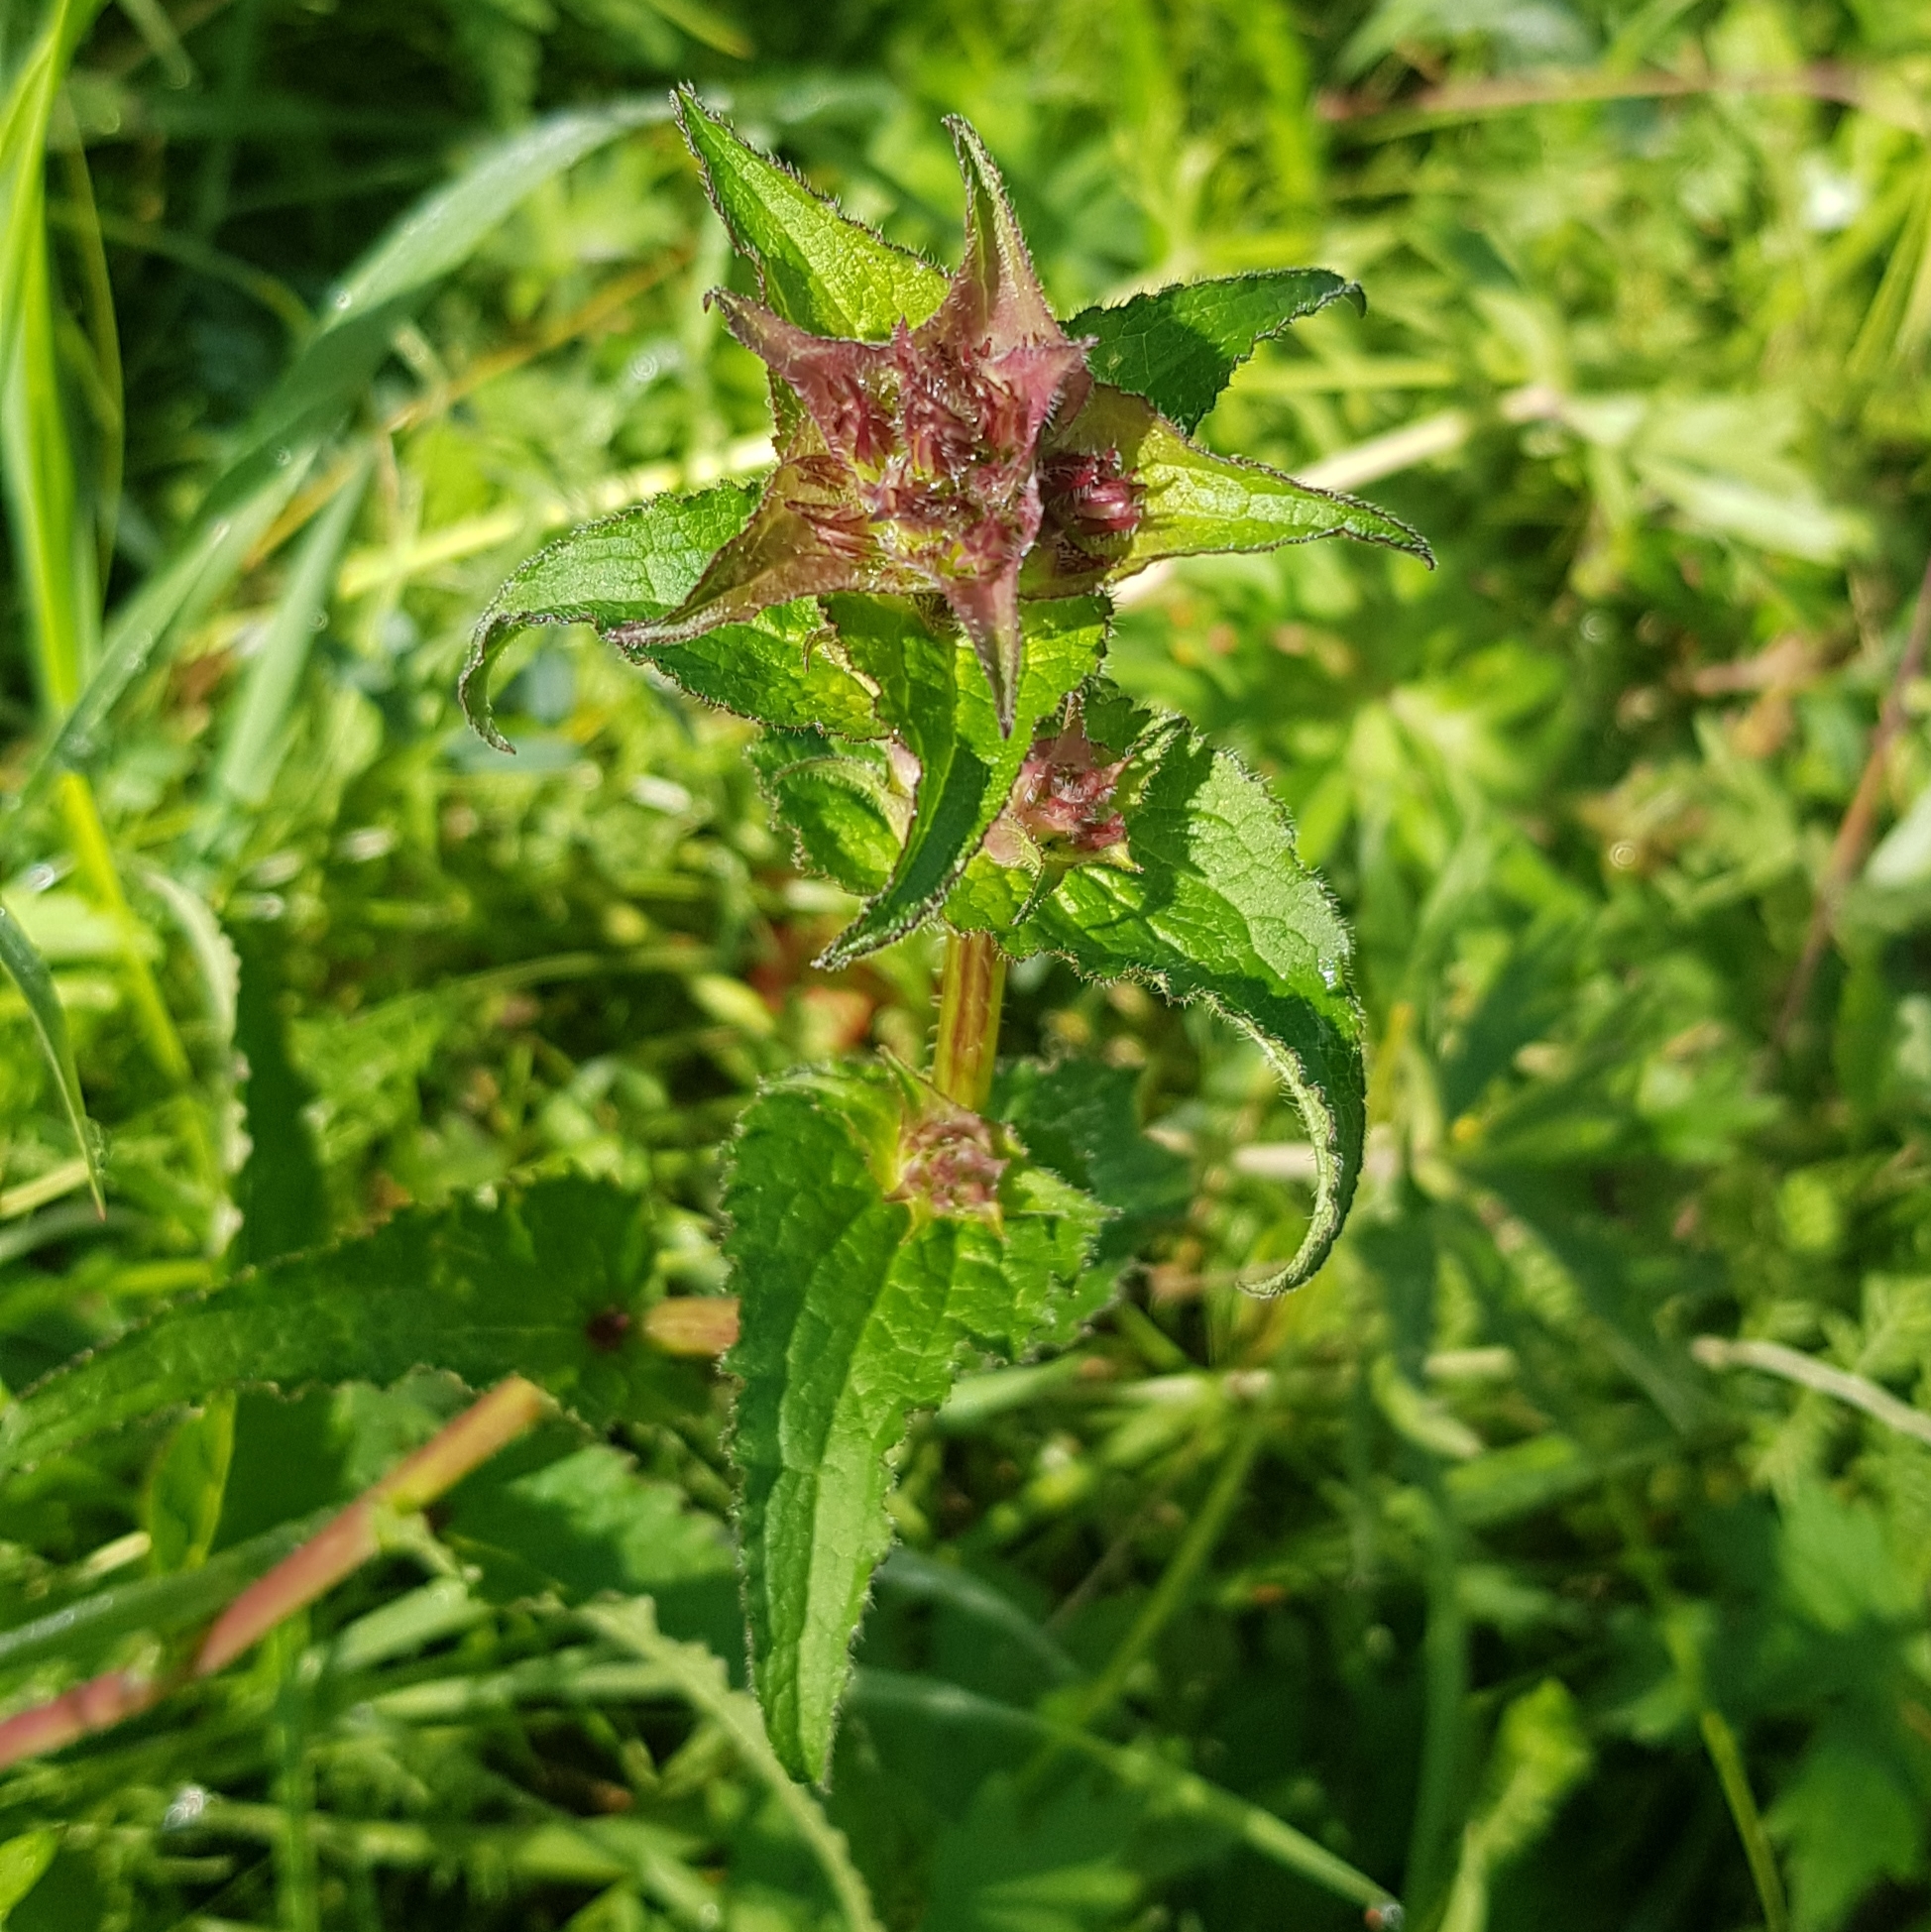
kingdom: Plantae
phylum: Tracheophyta
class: Magnoliopsida
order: Asterales
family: Campanulaceae
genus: Campanula
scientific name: Campanula glomerata
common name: Clustered bellflower
